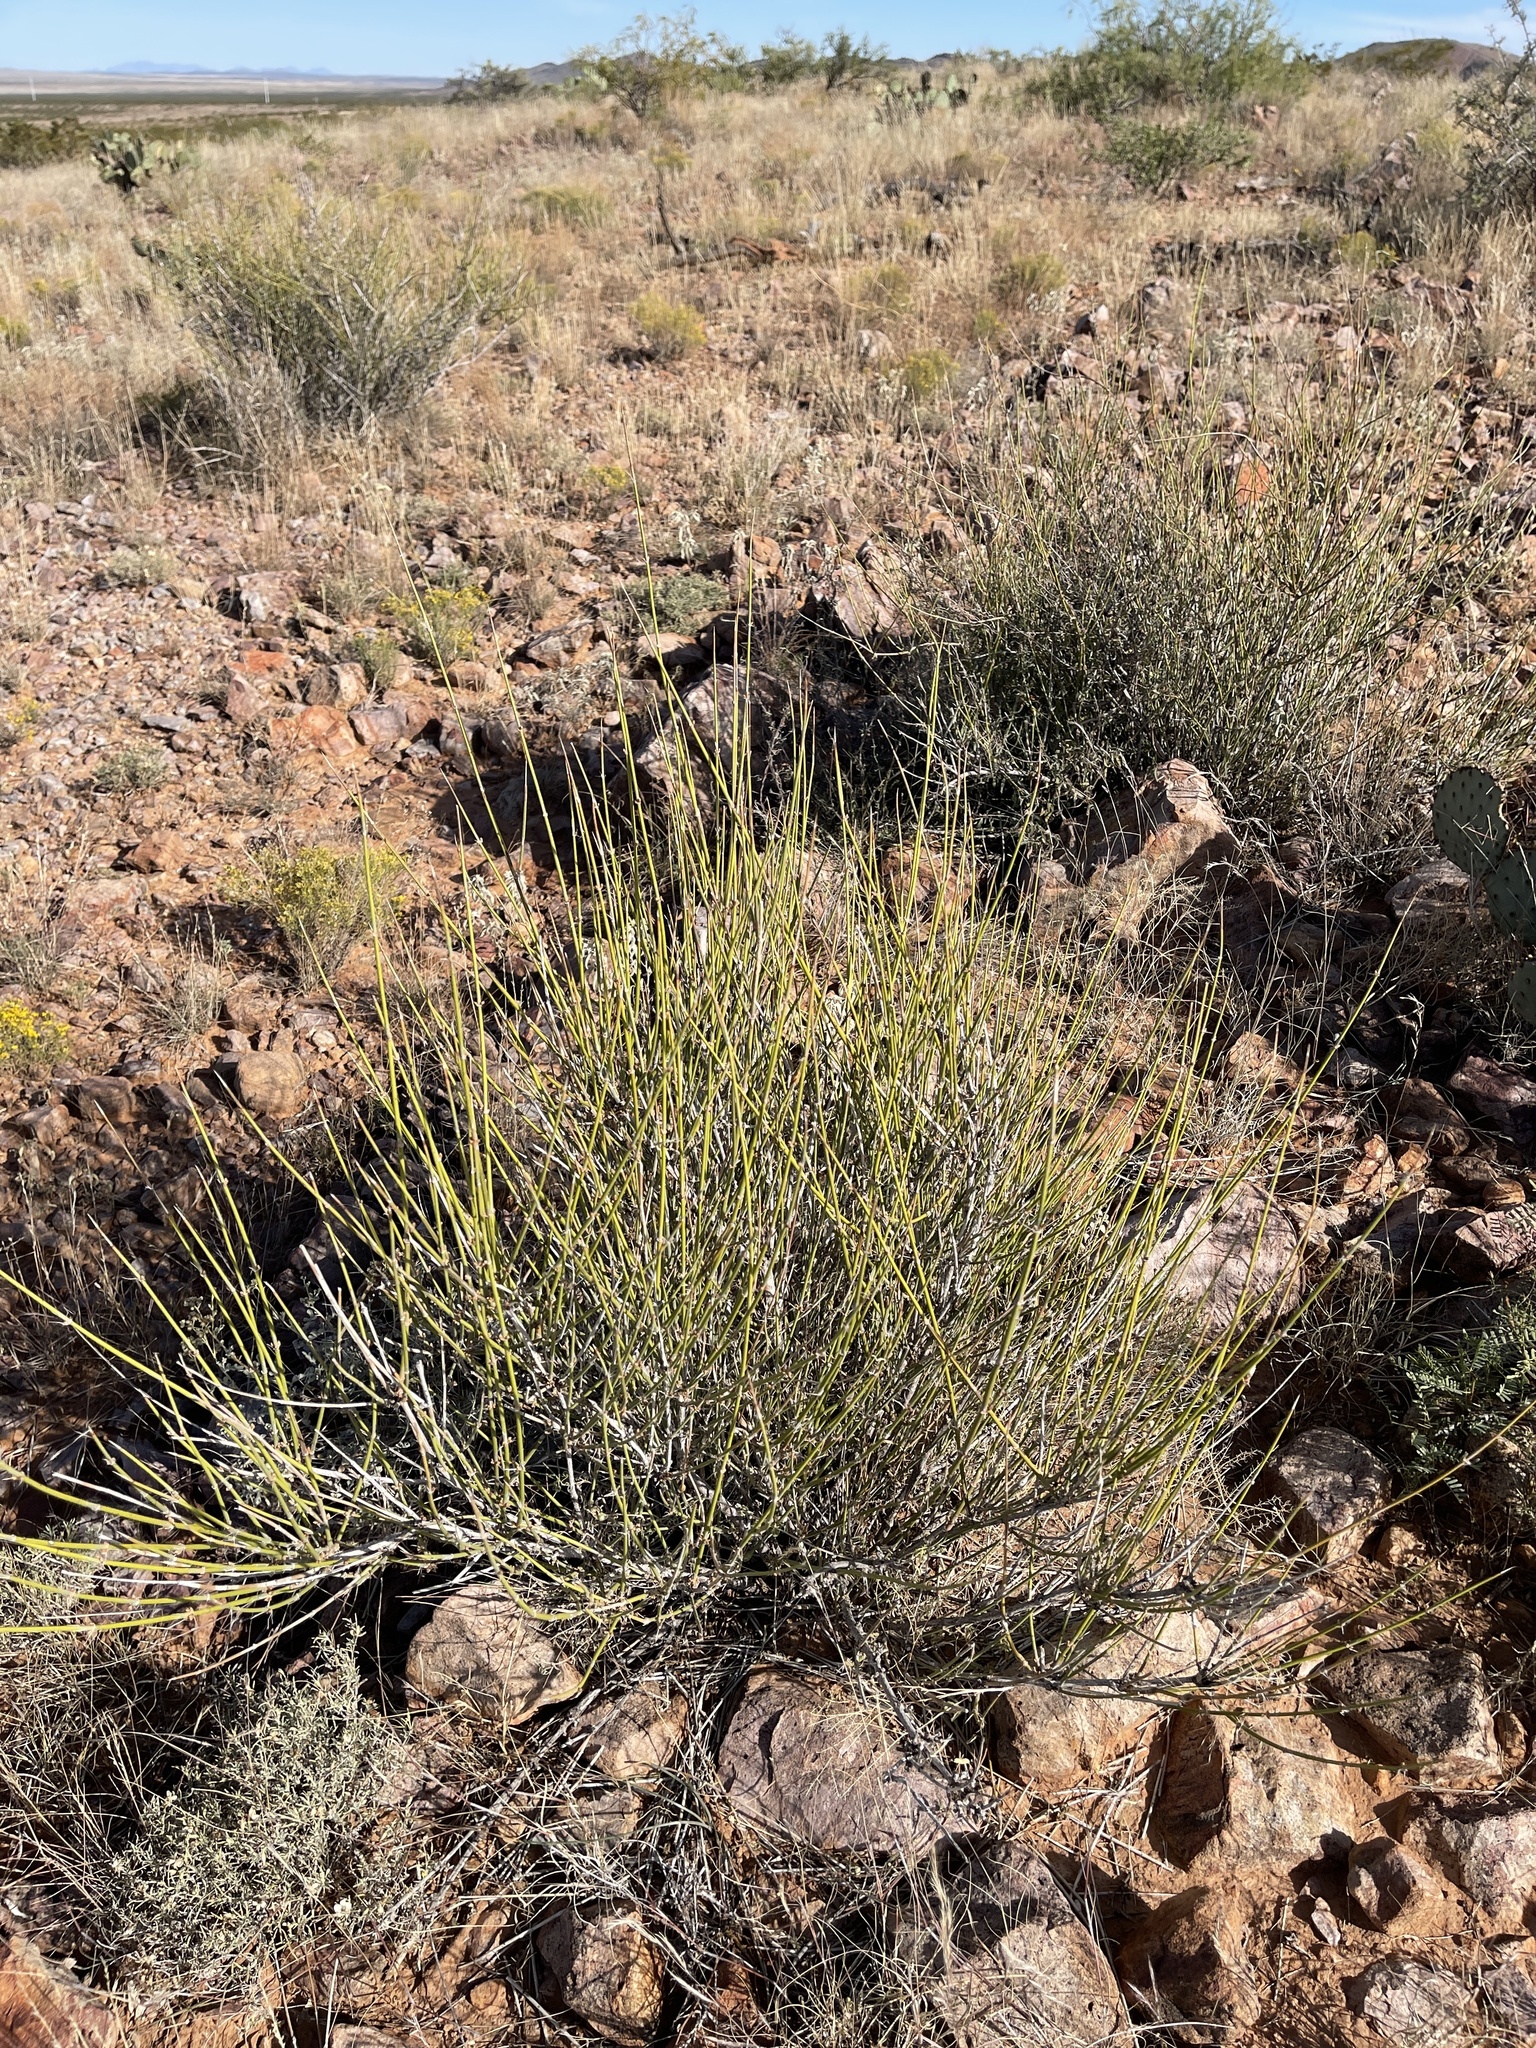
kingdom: Plantae
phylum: Tracheophyta
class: Gnetopsida
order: Ephedrales
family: Ephedraceae
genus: Ephedra
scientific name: Ephedra trifurca
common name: Mexican-tea
